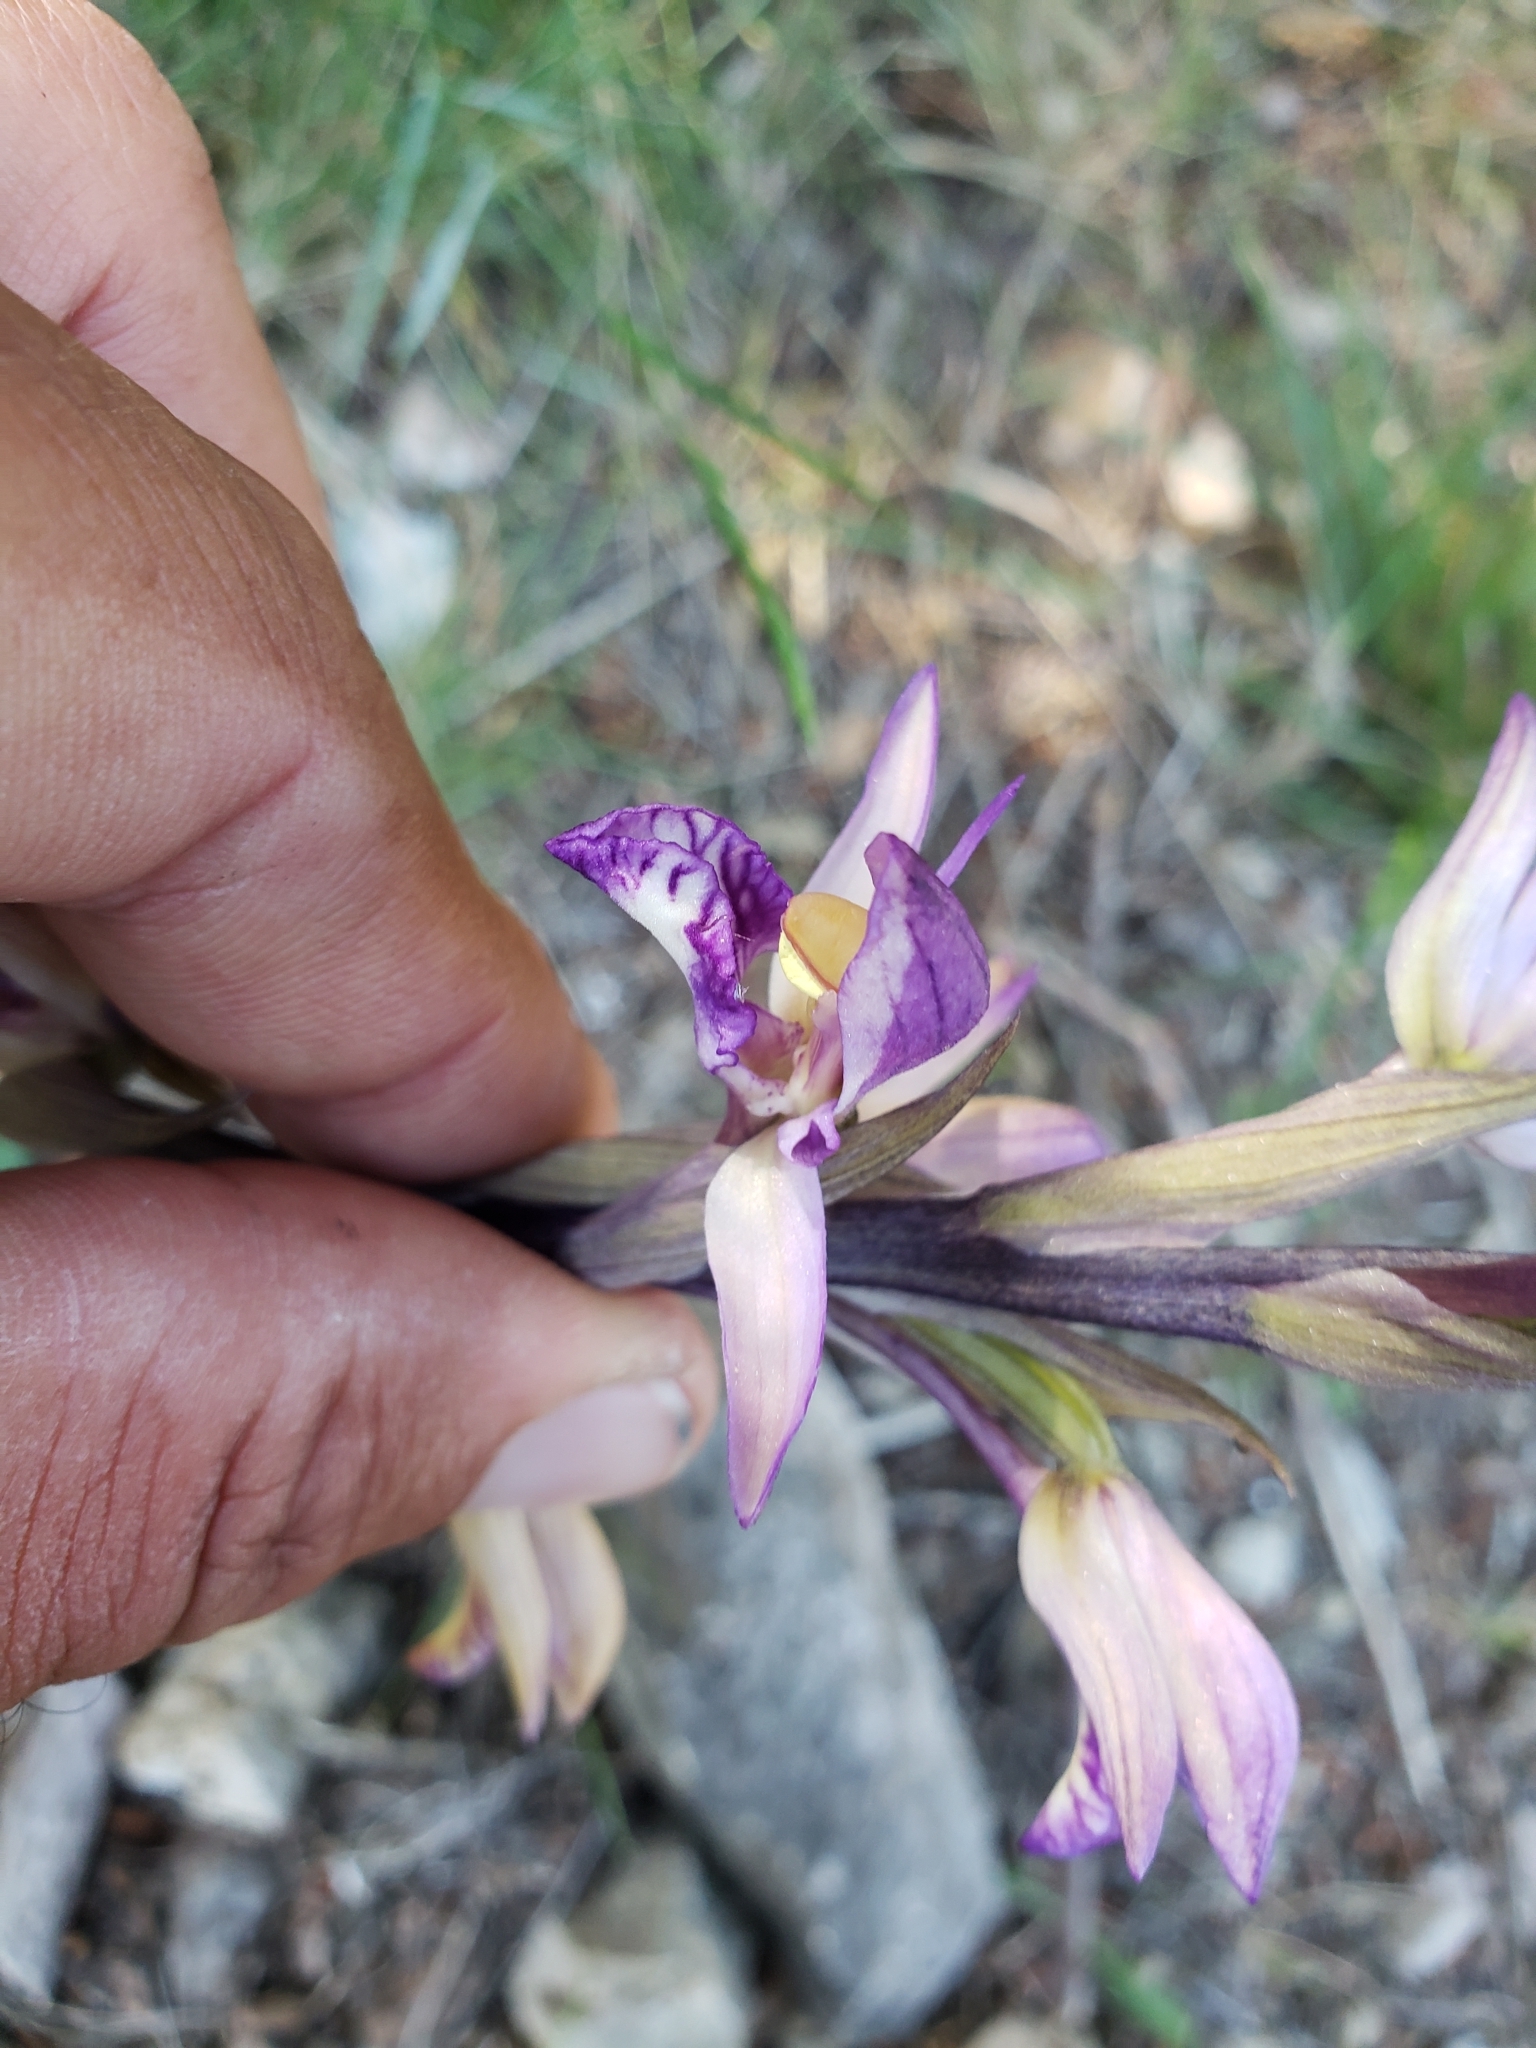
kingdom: Plantae
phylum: Tracheophyta
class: Liliopsida
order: Asparagales
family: Orchidaceae
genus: Limodorum
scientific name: Limodorum abortivum
